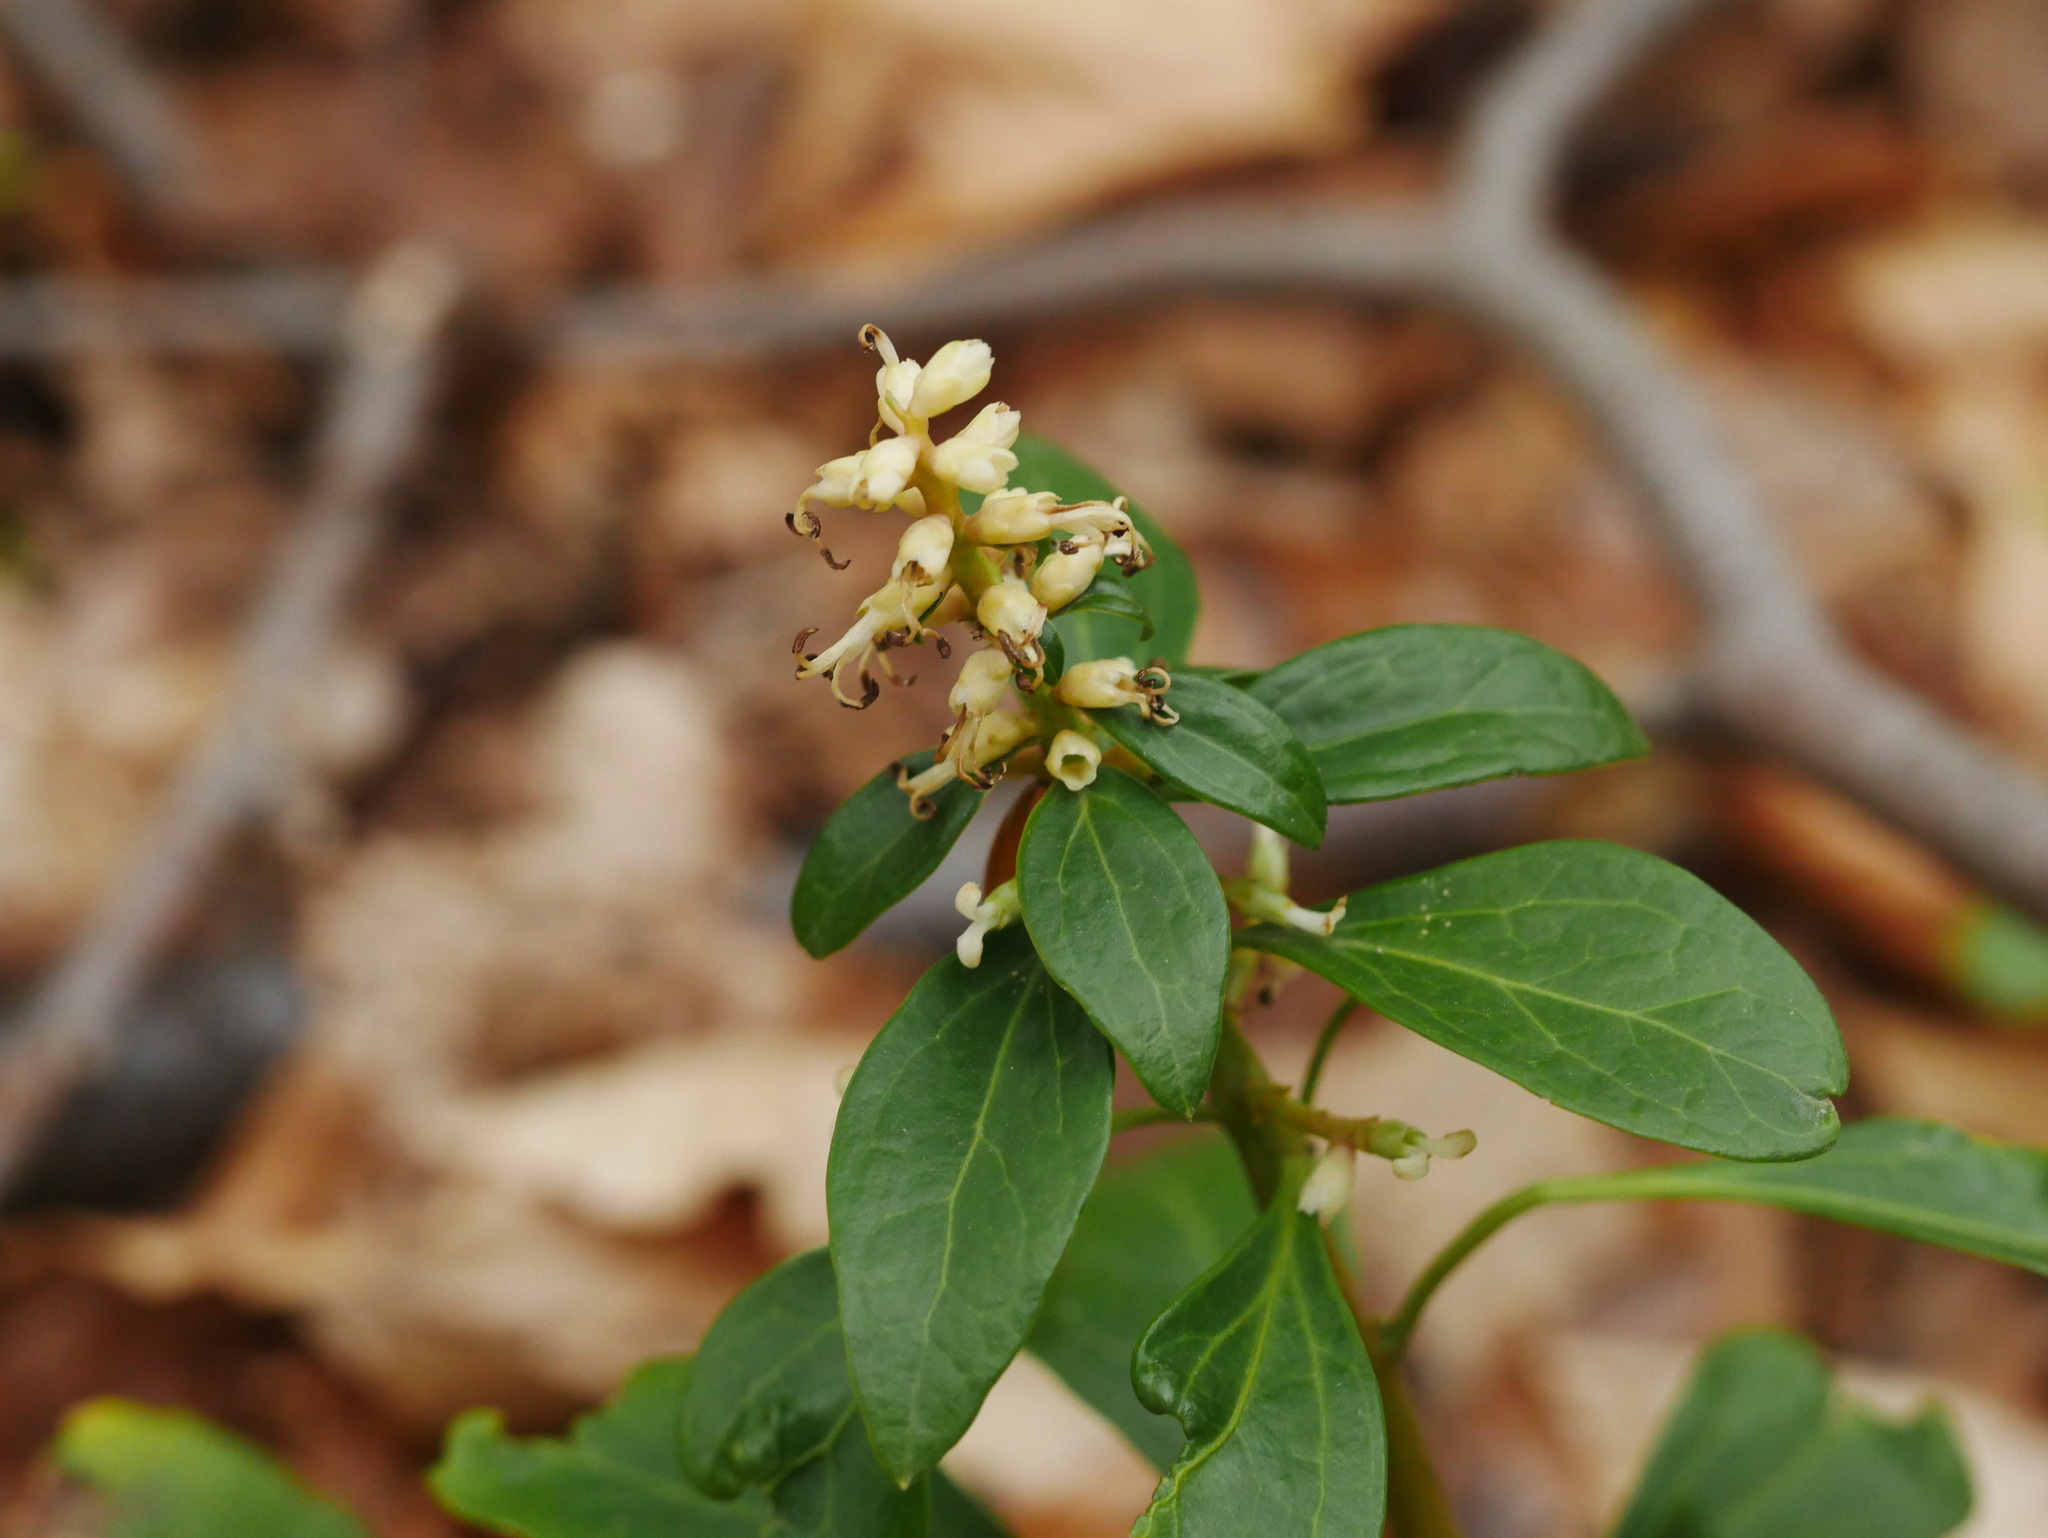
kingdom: Plantae
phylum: Tracheophyta
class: Magnoliopsida
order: Buxales
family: Buxaceae
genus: Pachysandra
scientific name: Pachysandra terminalis
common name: Japanese pachysandra
